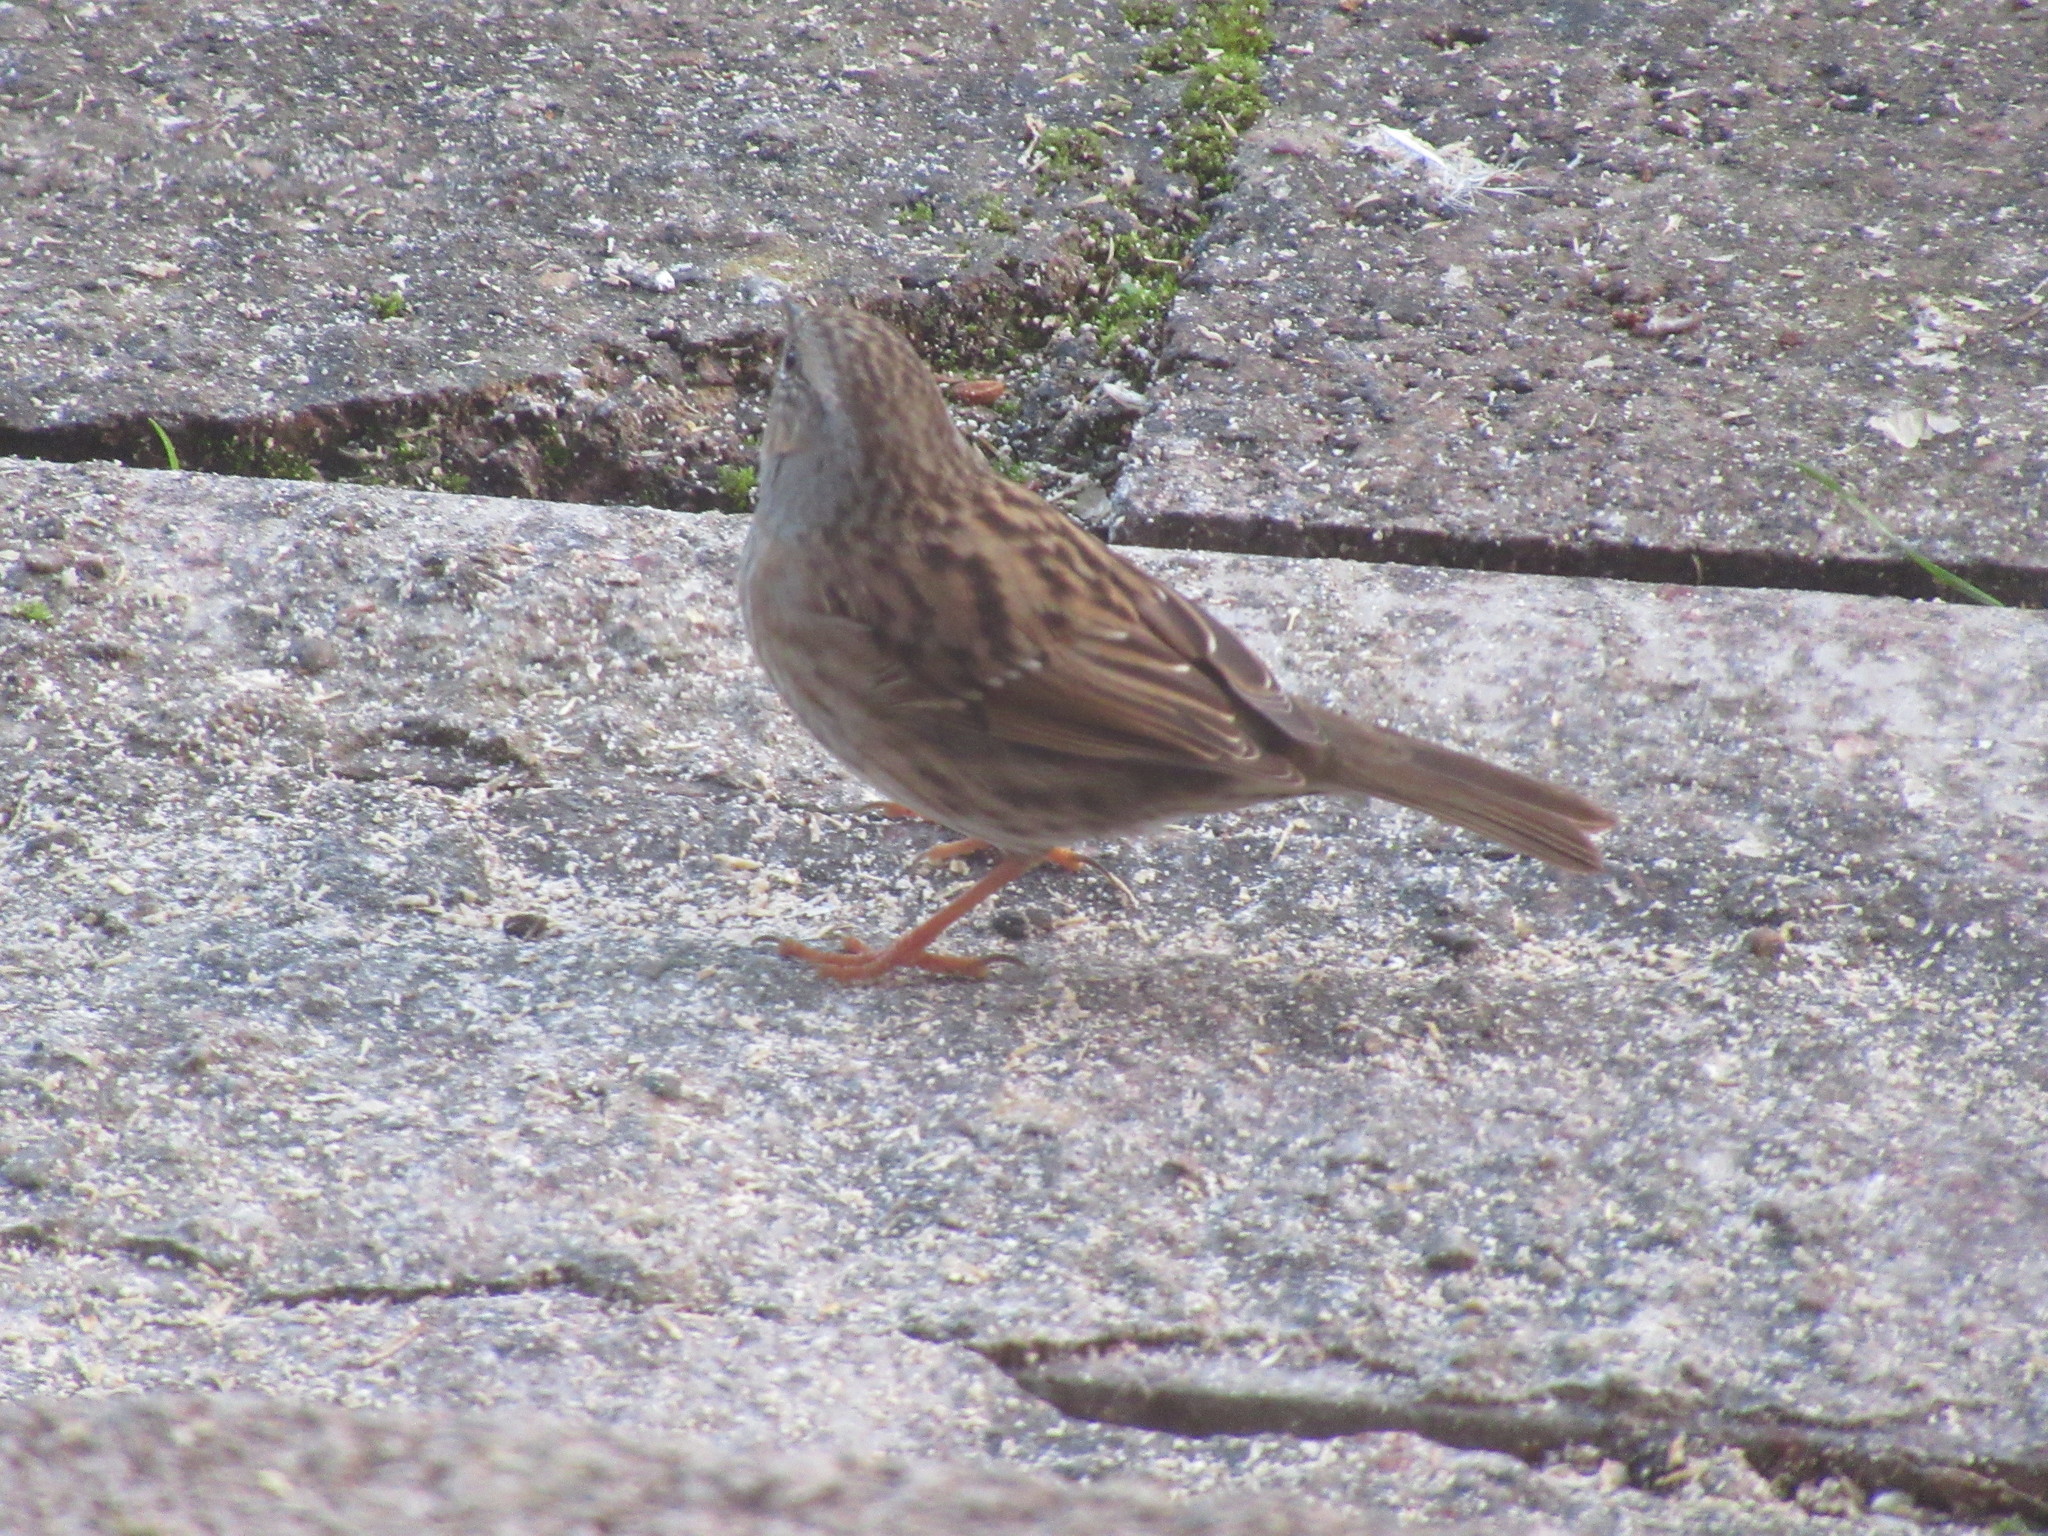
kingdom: Animalia
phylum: Chordata
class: Aves
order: Passeriformes
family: Prunellidae
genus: Prunella
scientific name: Prunella modularis
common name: Dunnock
